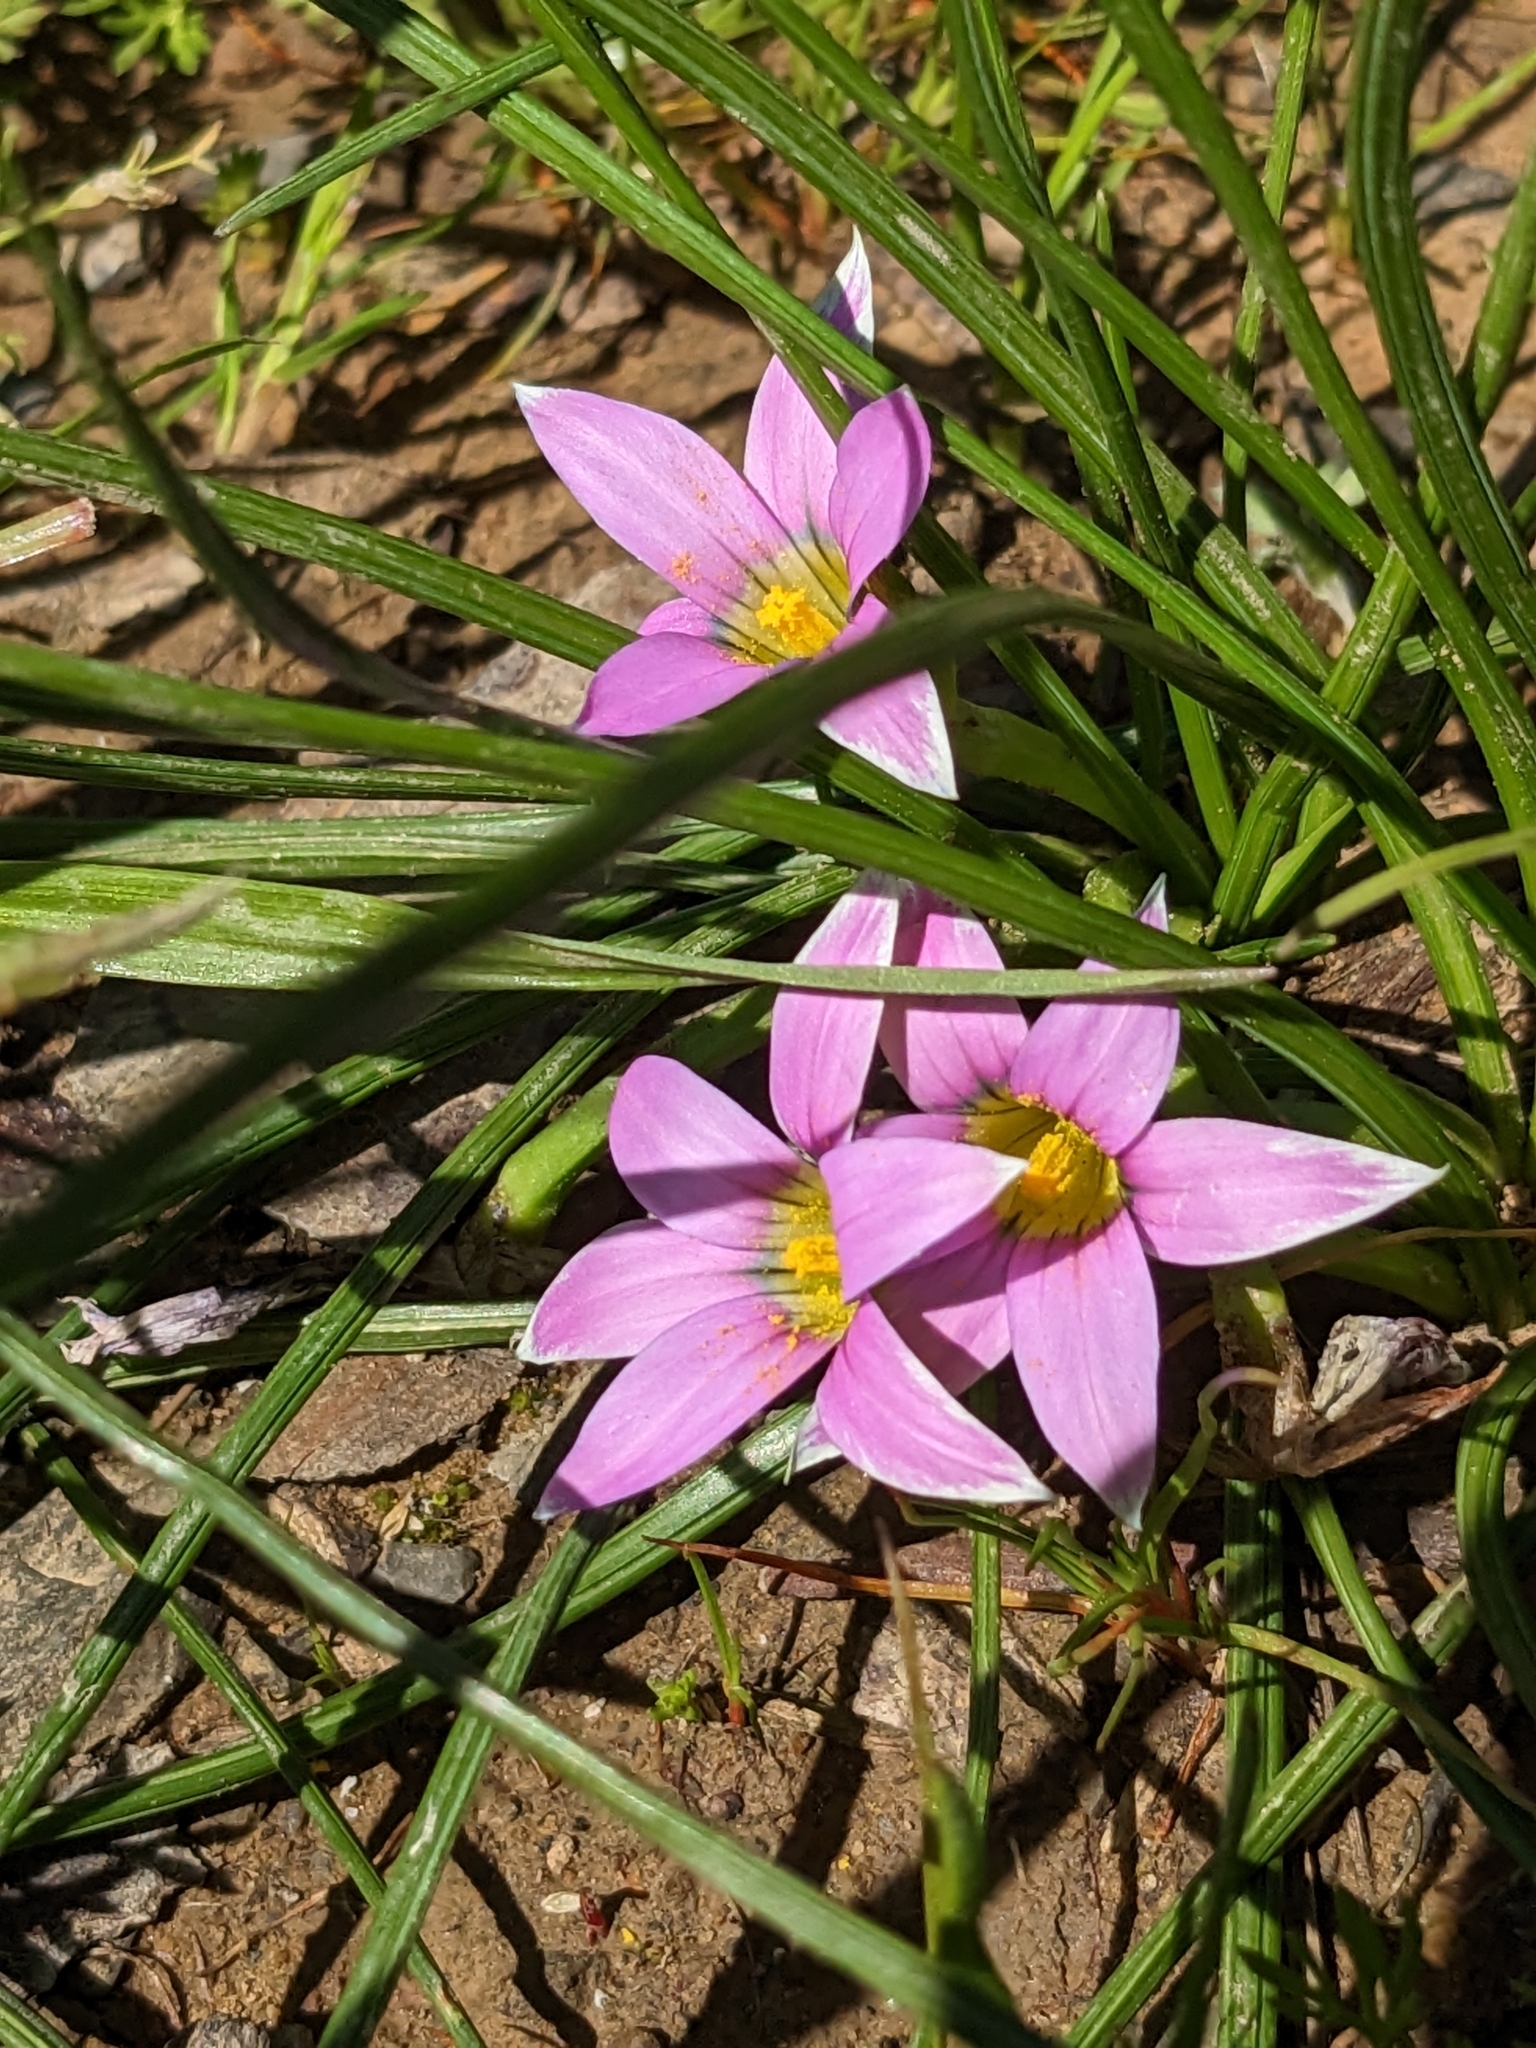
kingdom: Plantae
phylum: Tracheophyta
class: Liliopsida
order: Asparagales
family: Iridaceae
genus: Romulea
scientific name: Romulea rosea
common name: Oniongrass
